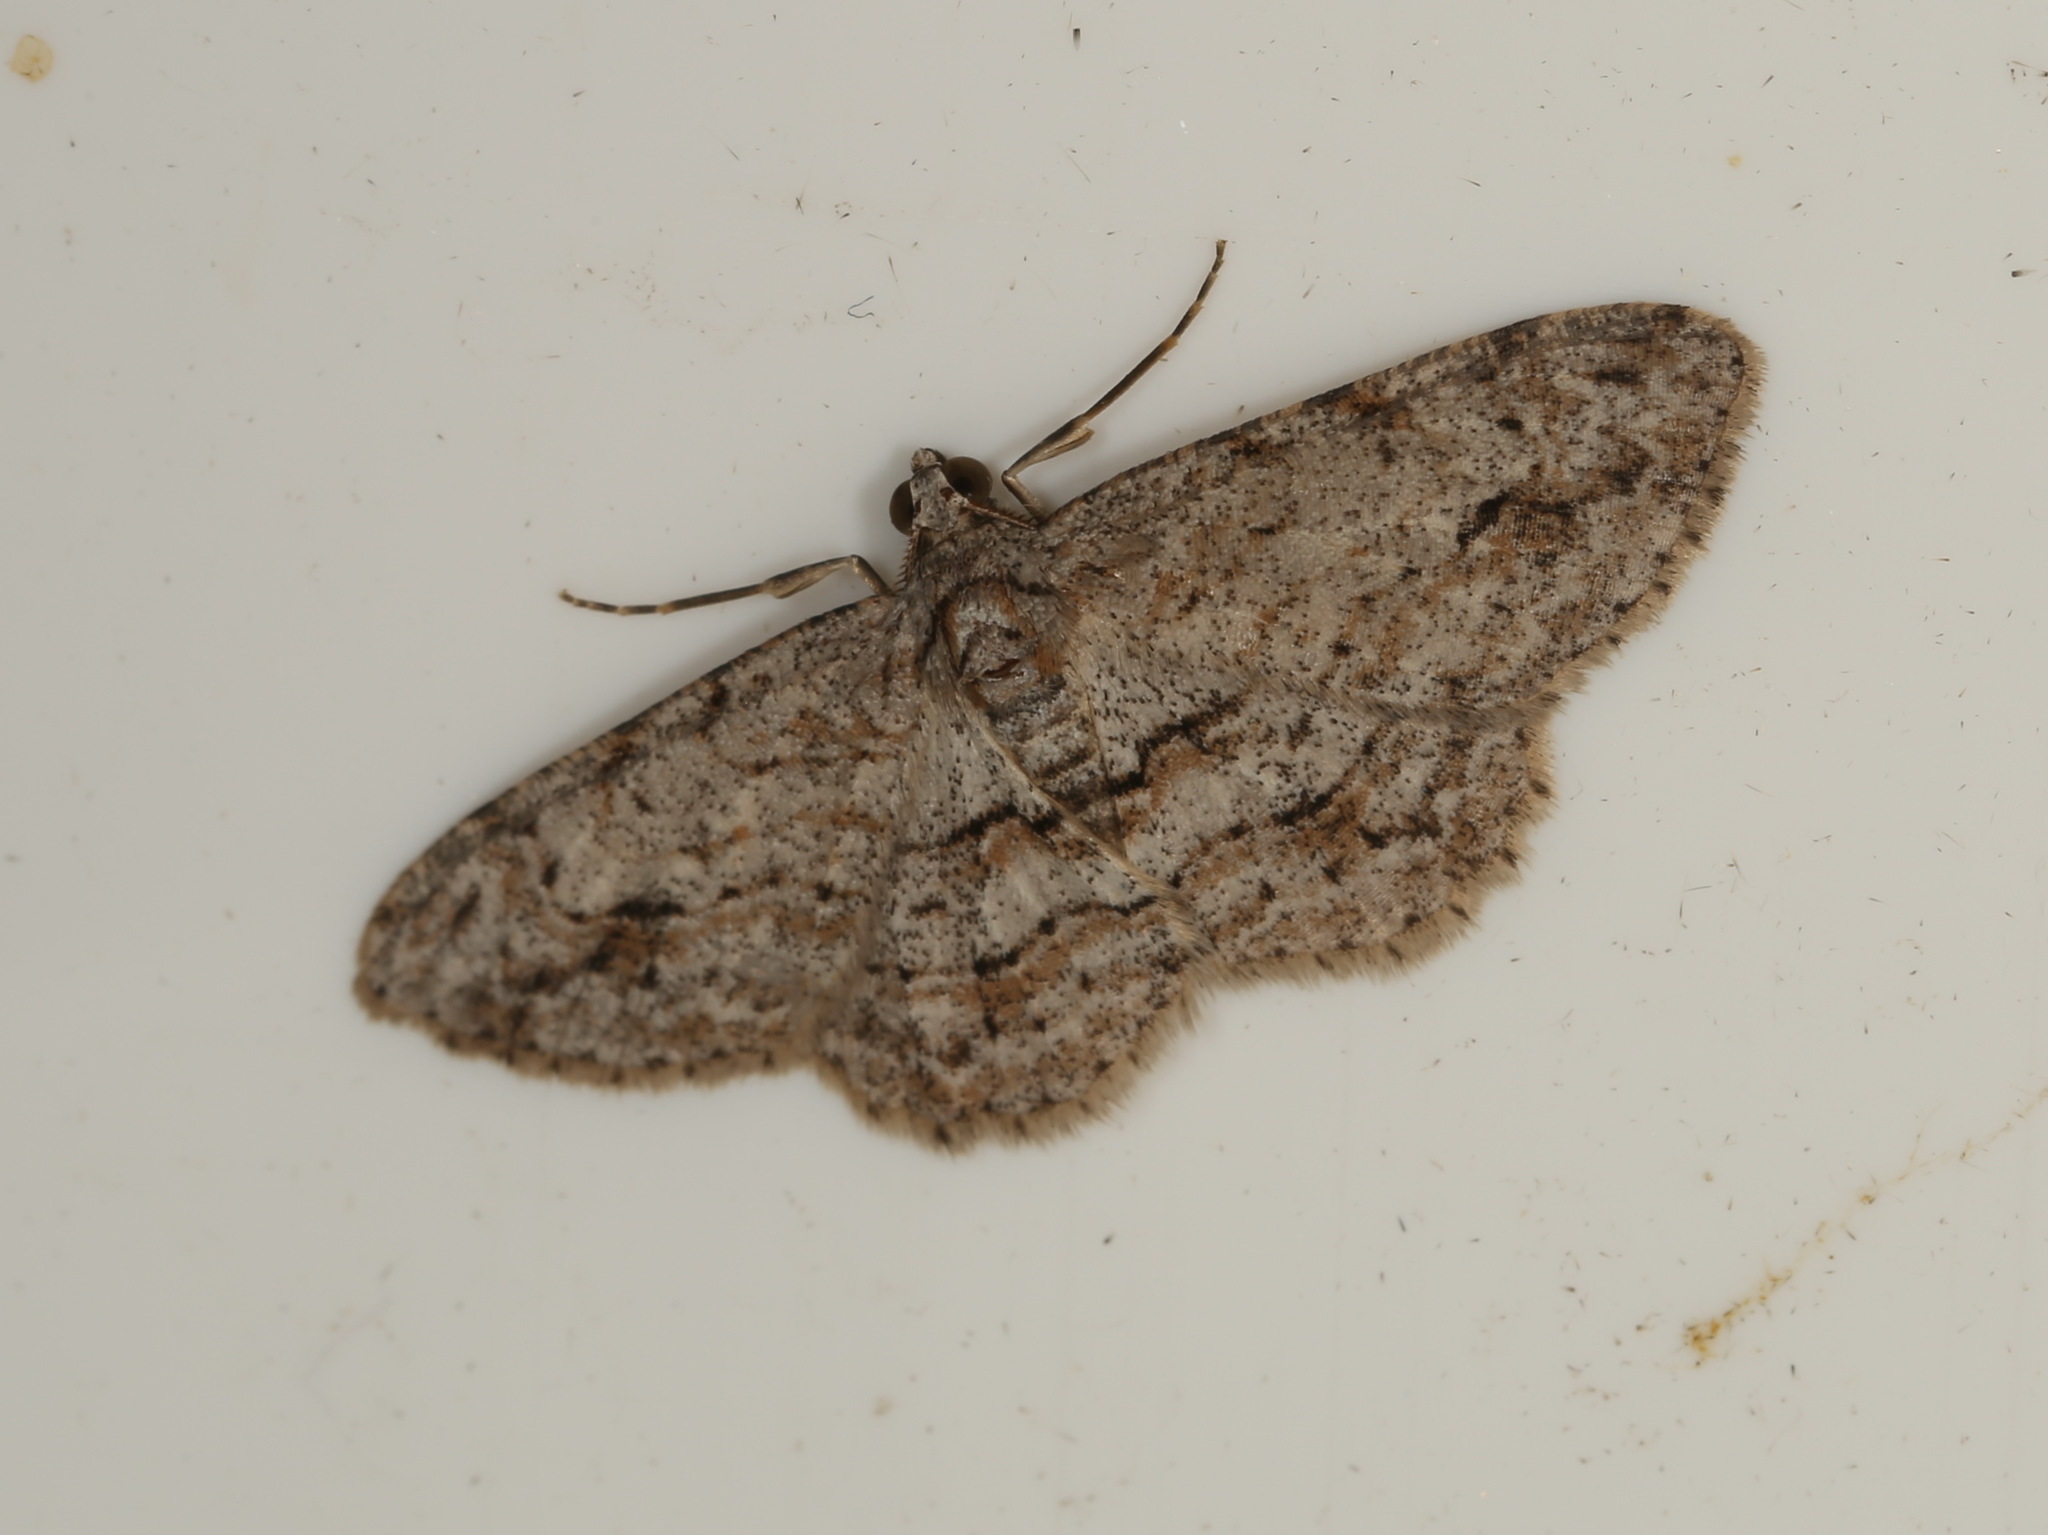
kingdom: Animalia
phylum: Arthropoda
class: Insecta
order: Lepidoptera
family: Geometridae
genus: Didymoctenia
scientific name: Didymoctenia exsuperata
